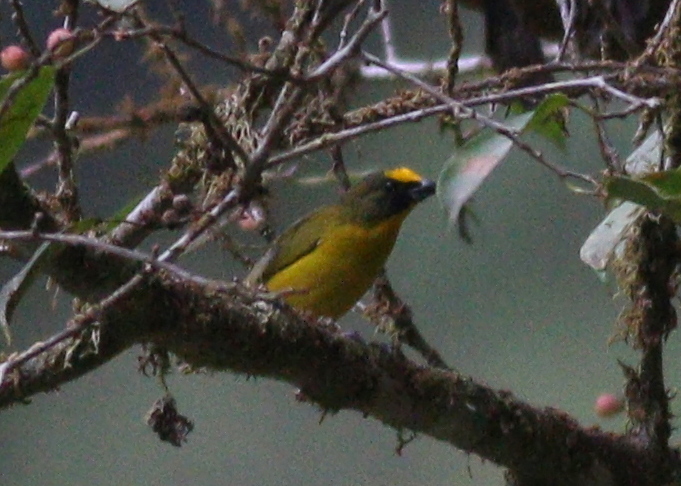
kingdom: Animalia
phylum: Chordata
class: Aves
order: Passeriformes
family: Fringillidae
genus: Euphonia
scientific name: Euphonia laniirostris
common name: Thick-billed euphonia
